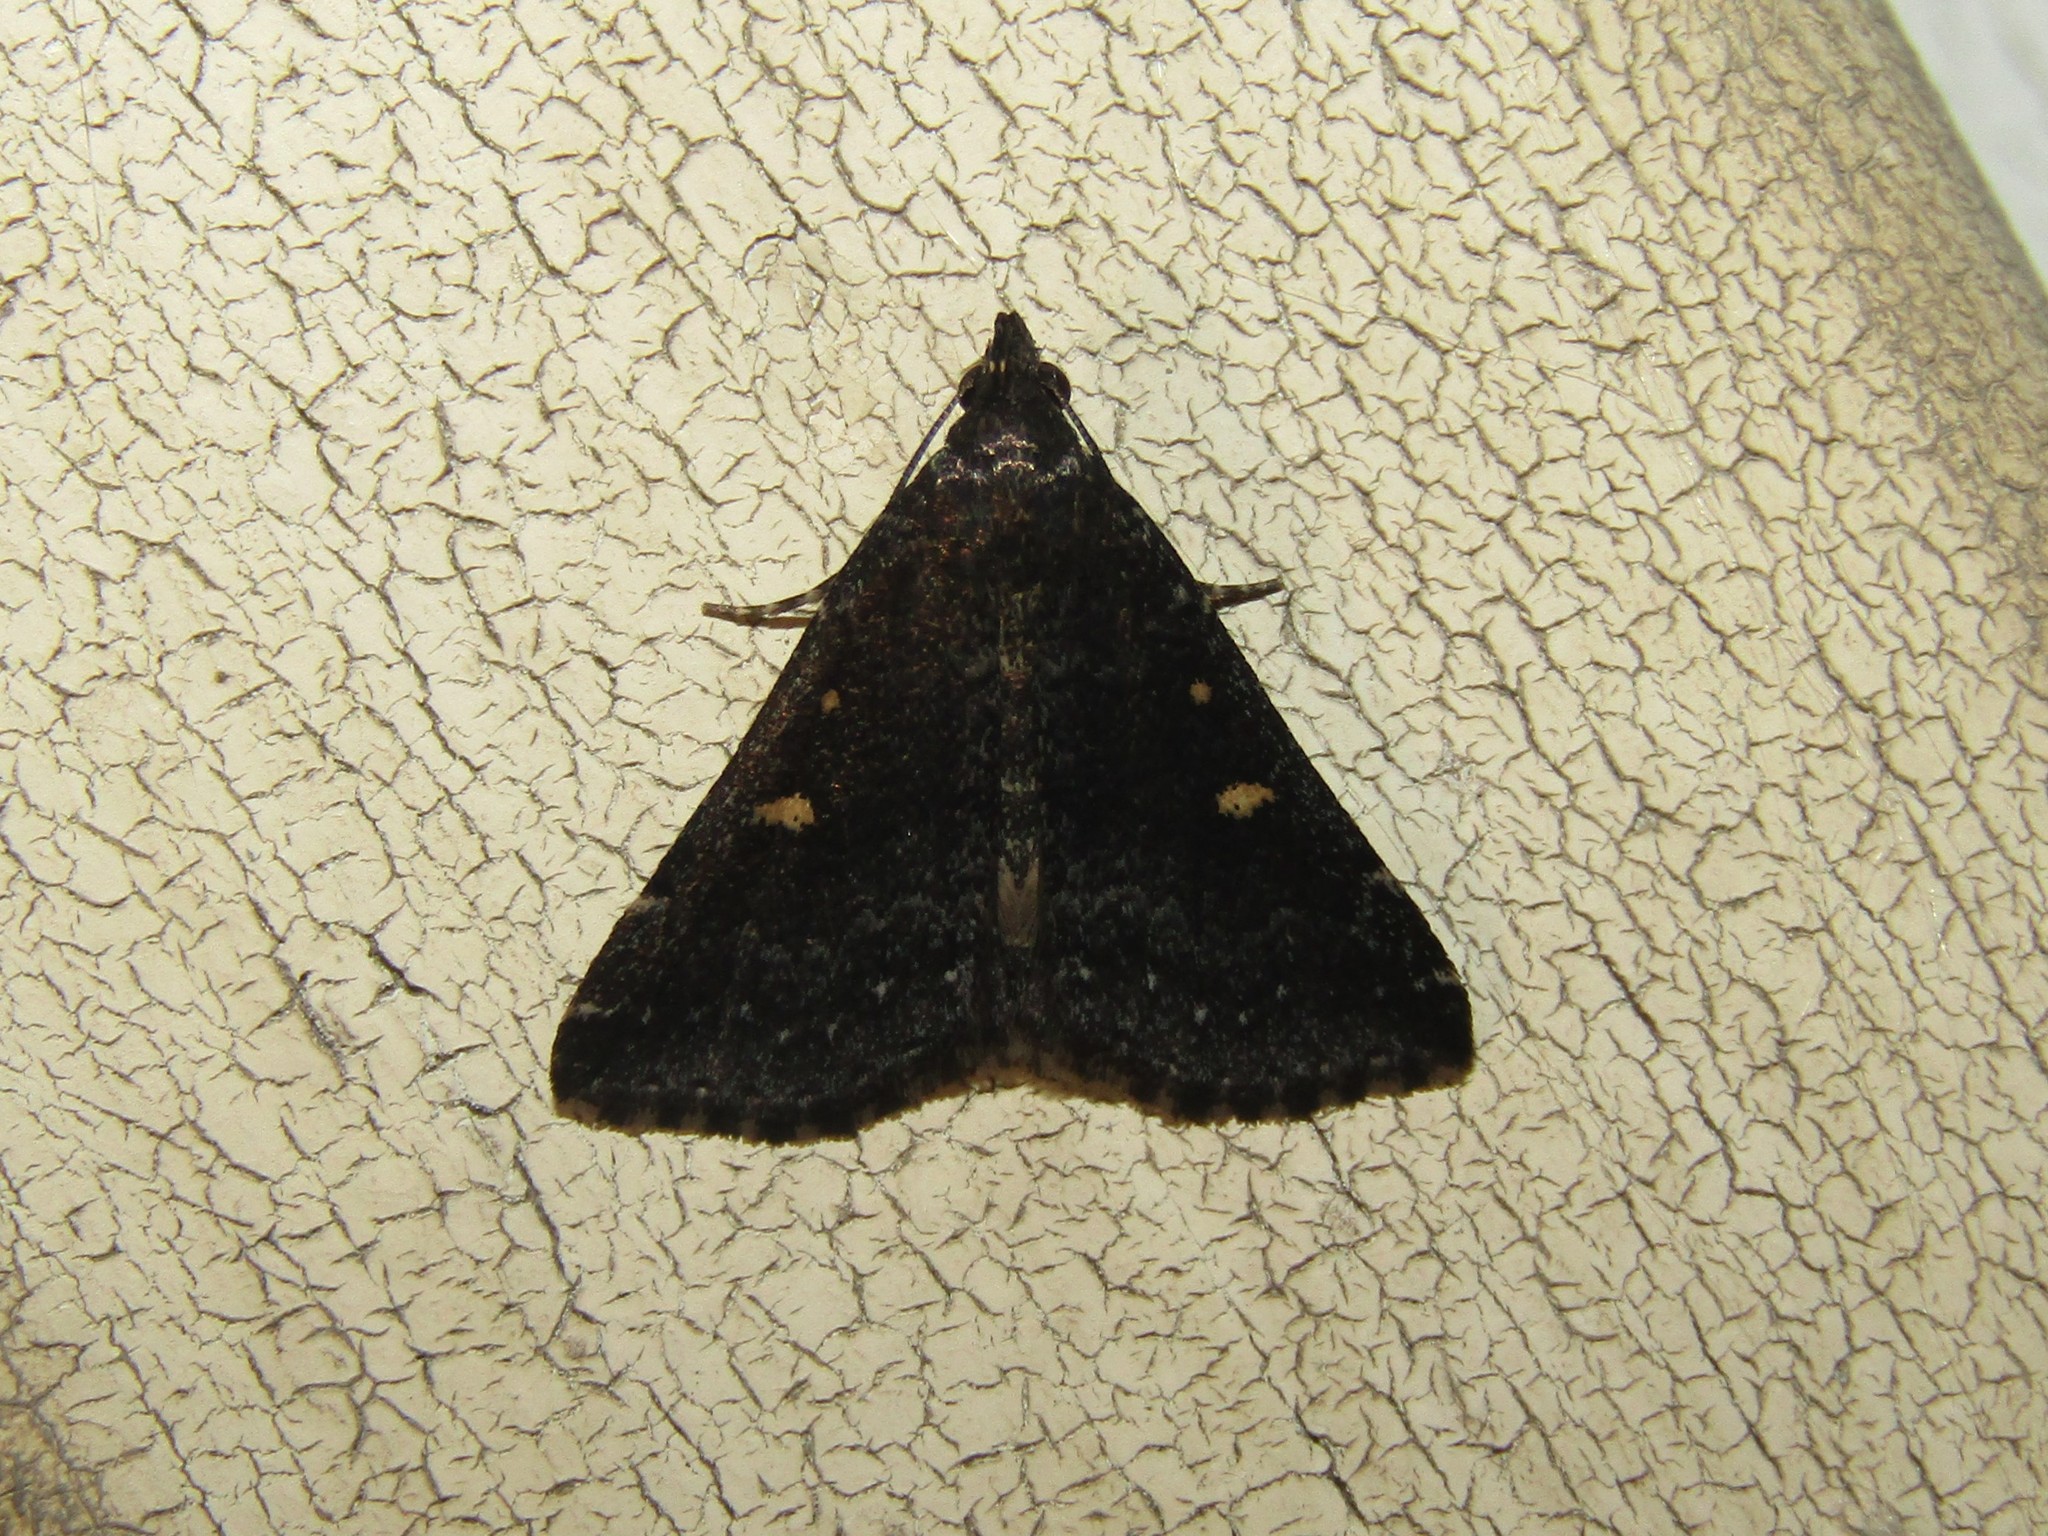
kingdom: Animalia
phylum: Arthropoda
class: Insecta
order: Lepidoptera
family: Erebidae
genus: Tetanolita
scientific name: Tetanolita mynesalis
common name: Smoky tetanolita moth
